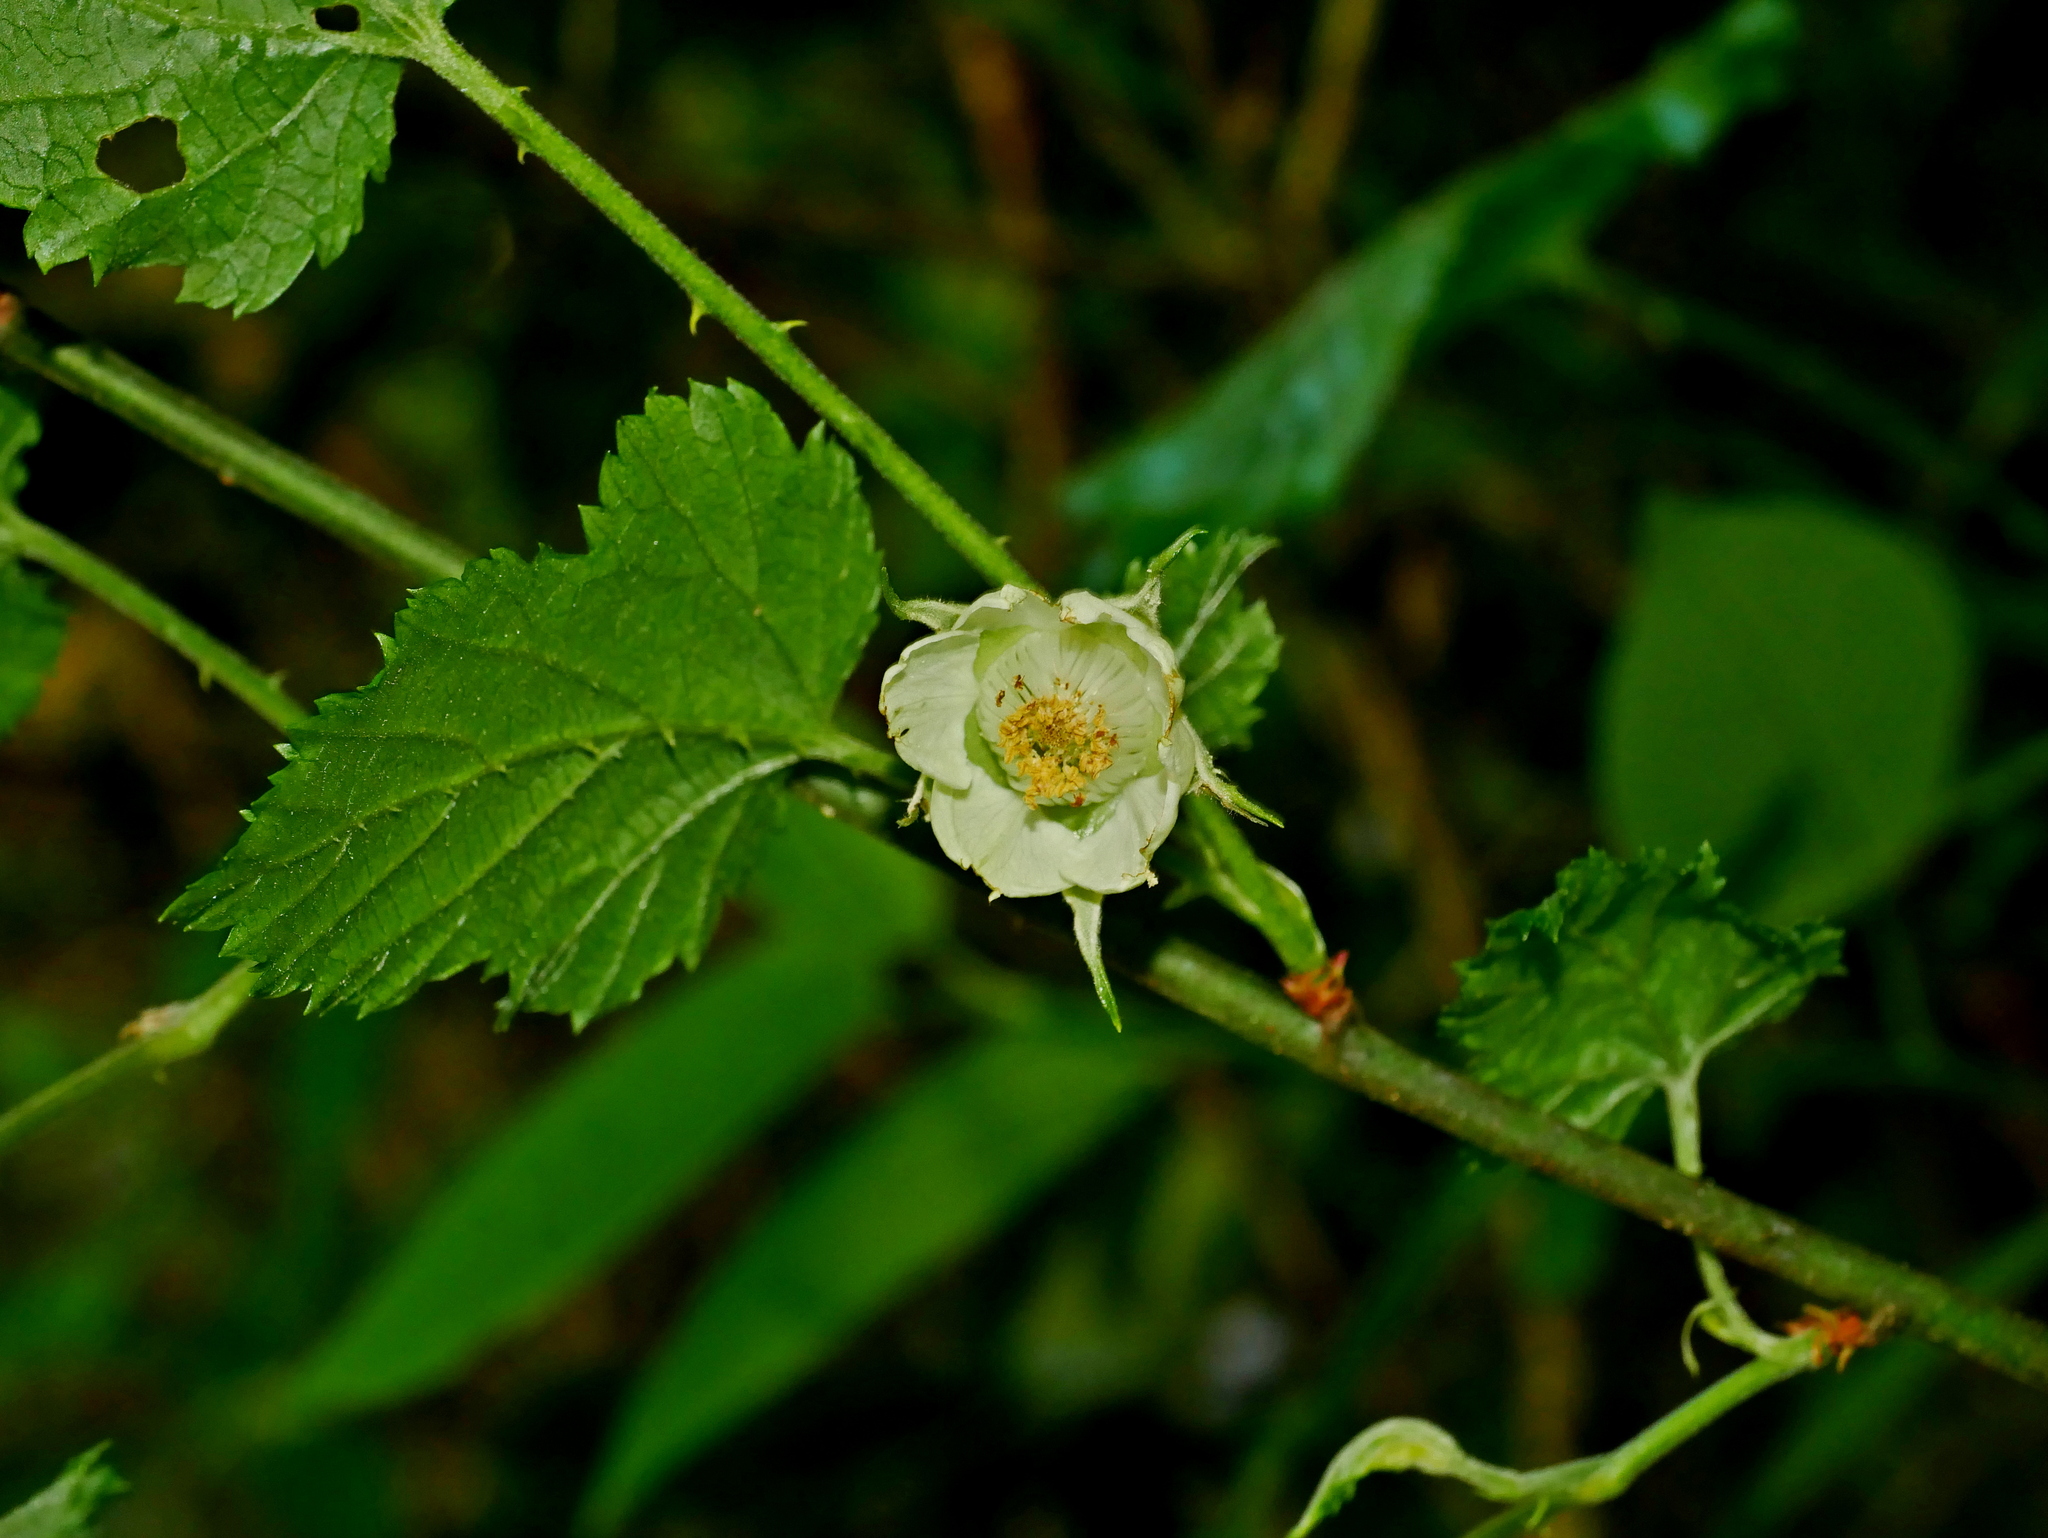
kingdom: Plantae
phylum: Tracheophyta
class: Magnoliopsida
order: Rosales
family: Rosaceae
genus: Rubus
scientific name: Rubus taitoensis
